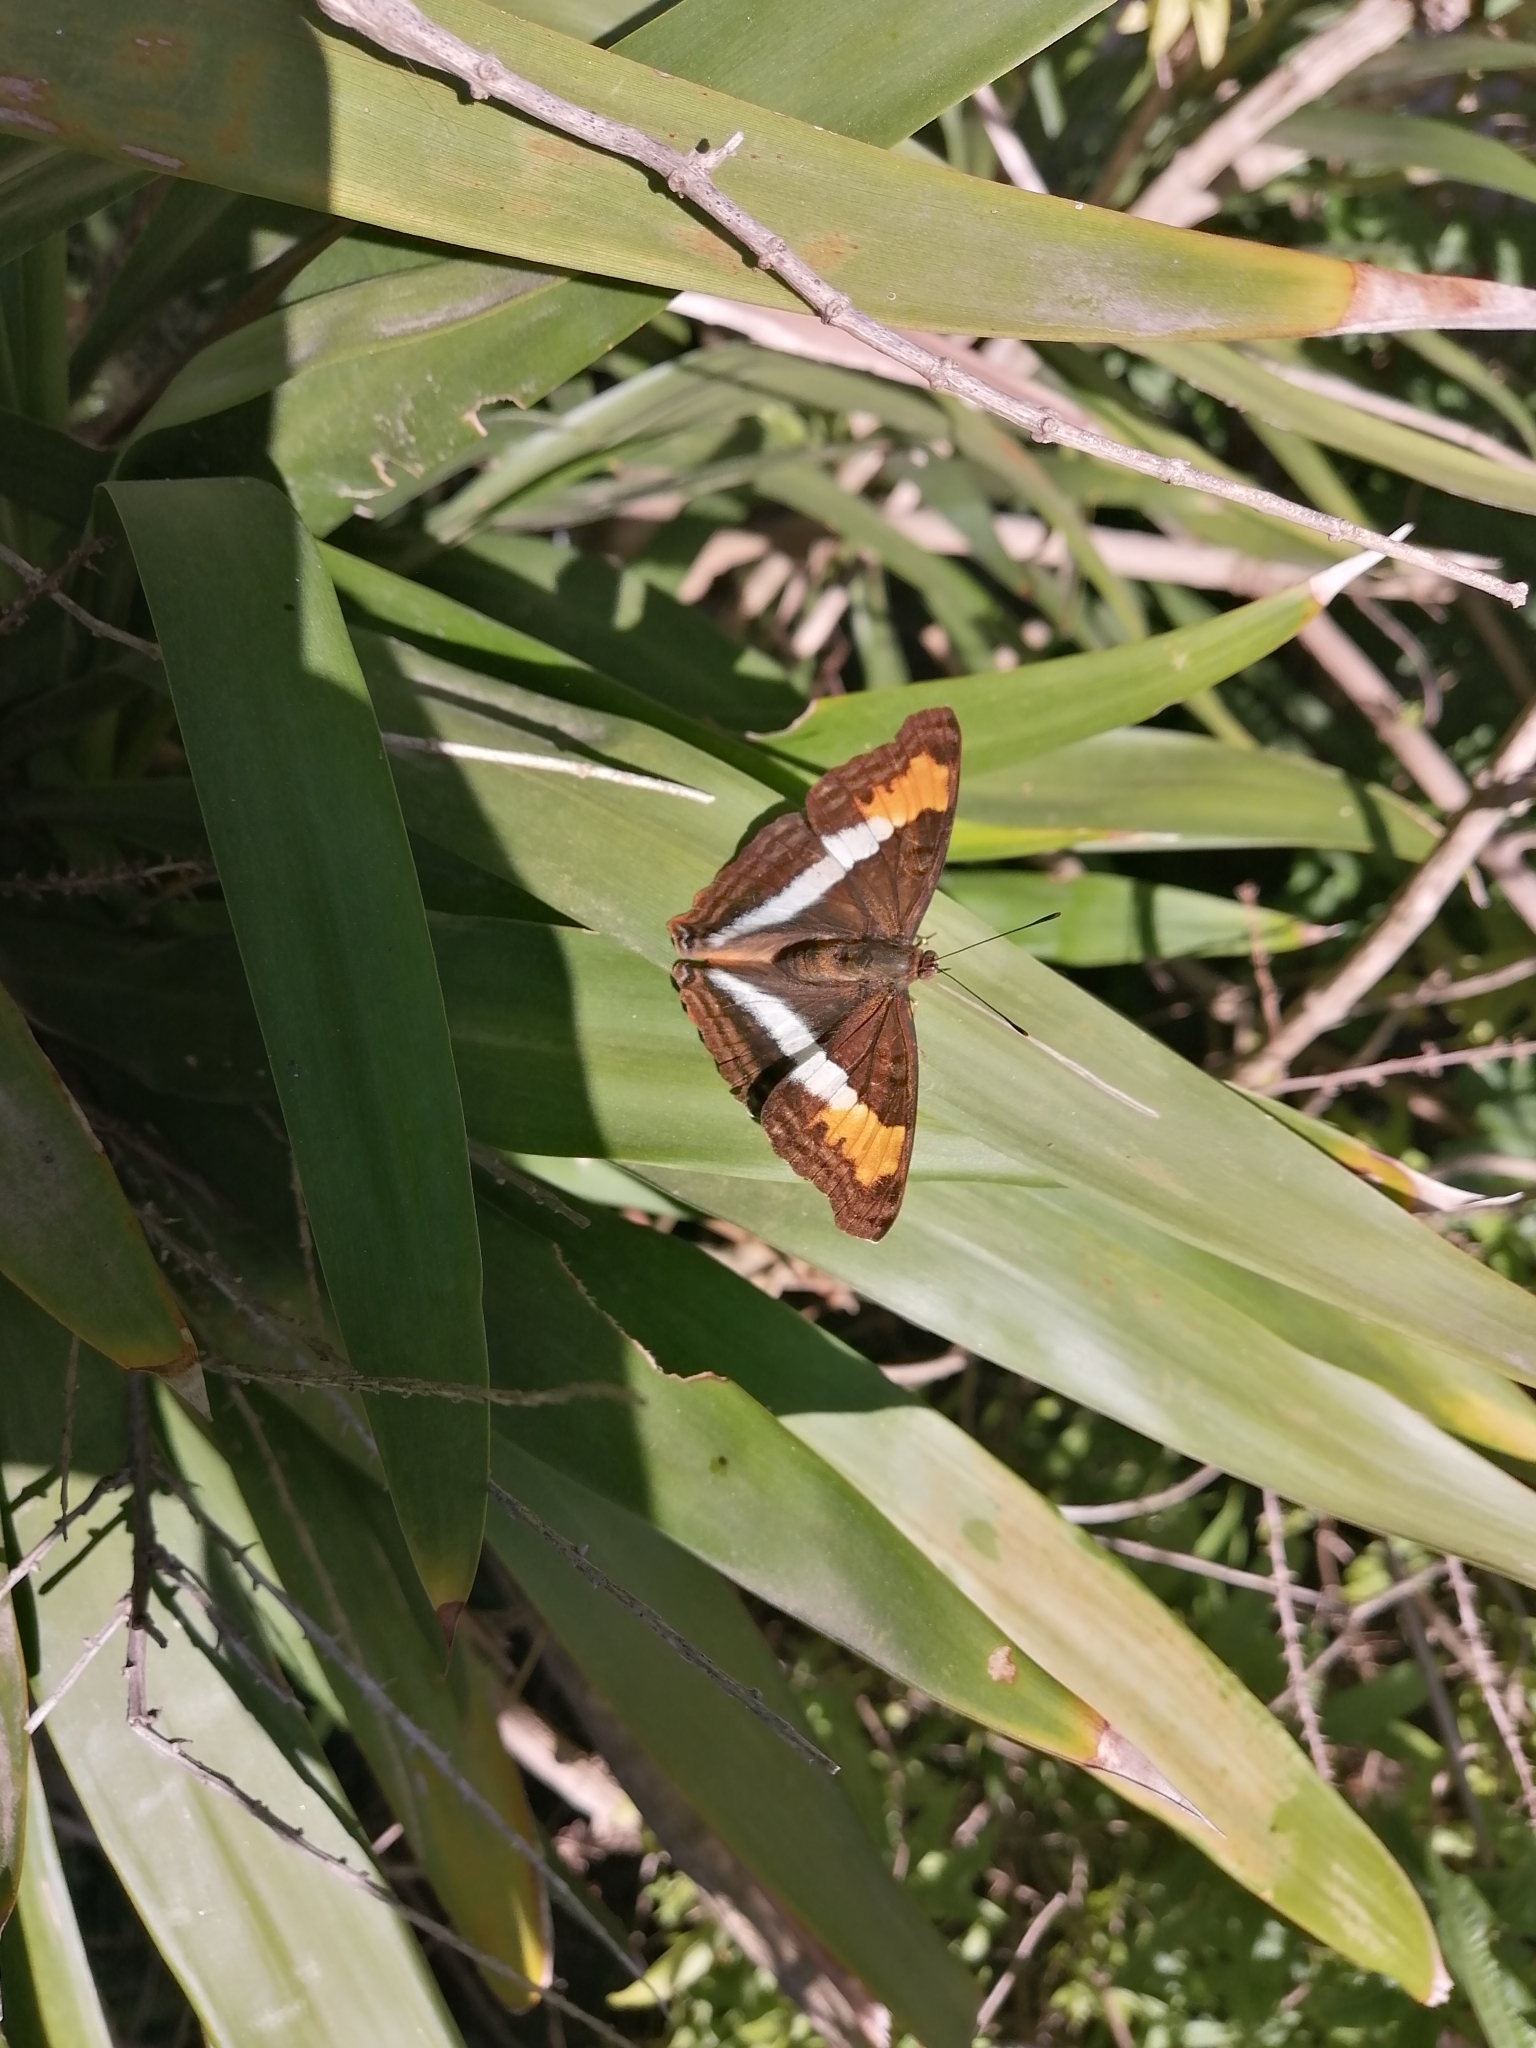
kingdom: Animalia
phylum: Arthropoda
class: Insecta
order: Lepidoptera
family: Nymphalidae
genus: Doxocopa
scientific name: Doxocopa laurentia
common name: Turquoise emperor
